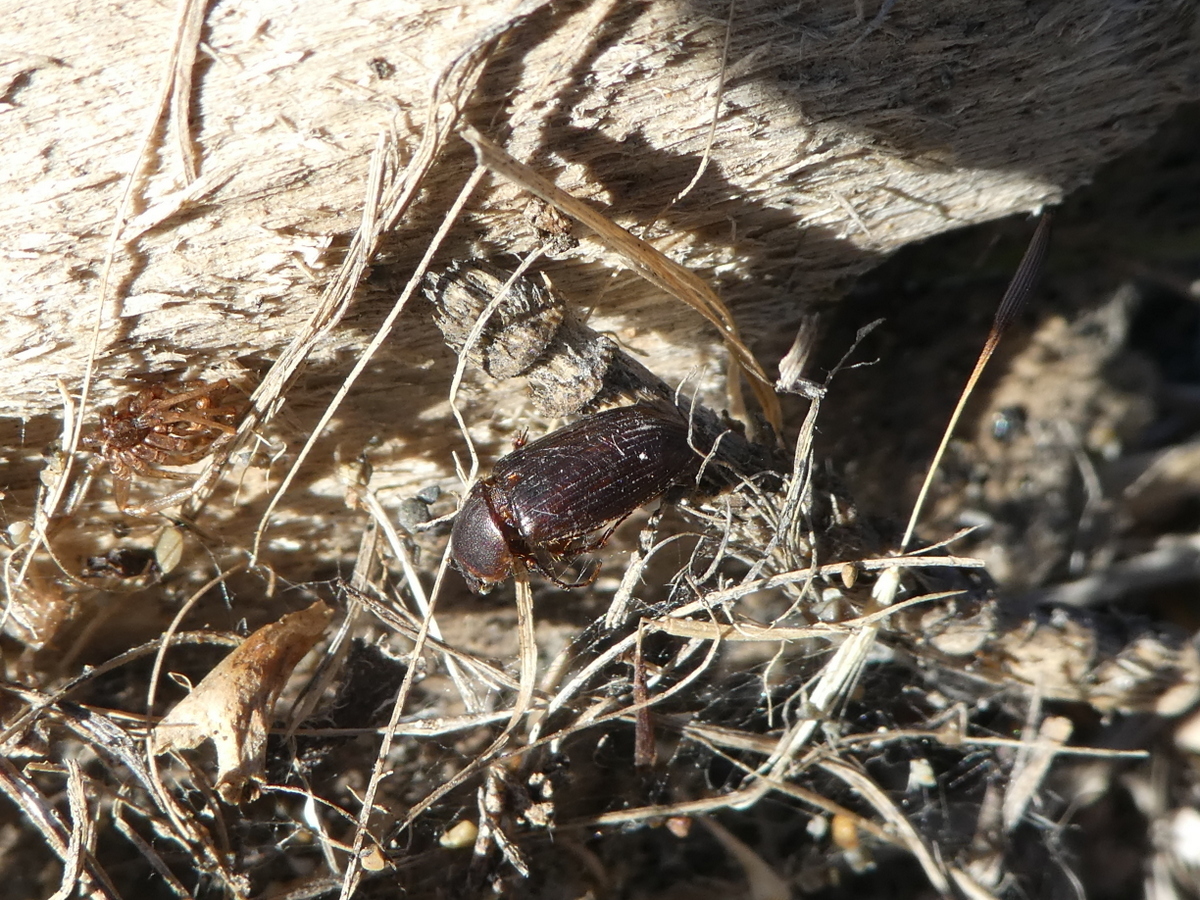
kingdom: Animalia
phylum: Arthropoda
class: Insecta
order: Coleoptera
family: Scarabaeidae
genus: Acrossidius
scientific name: Acrossidius tasmaniae
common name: Black-headed pasture cockchafer
